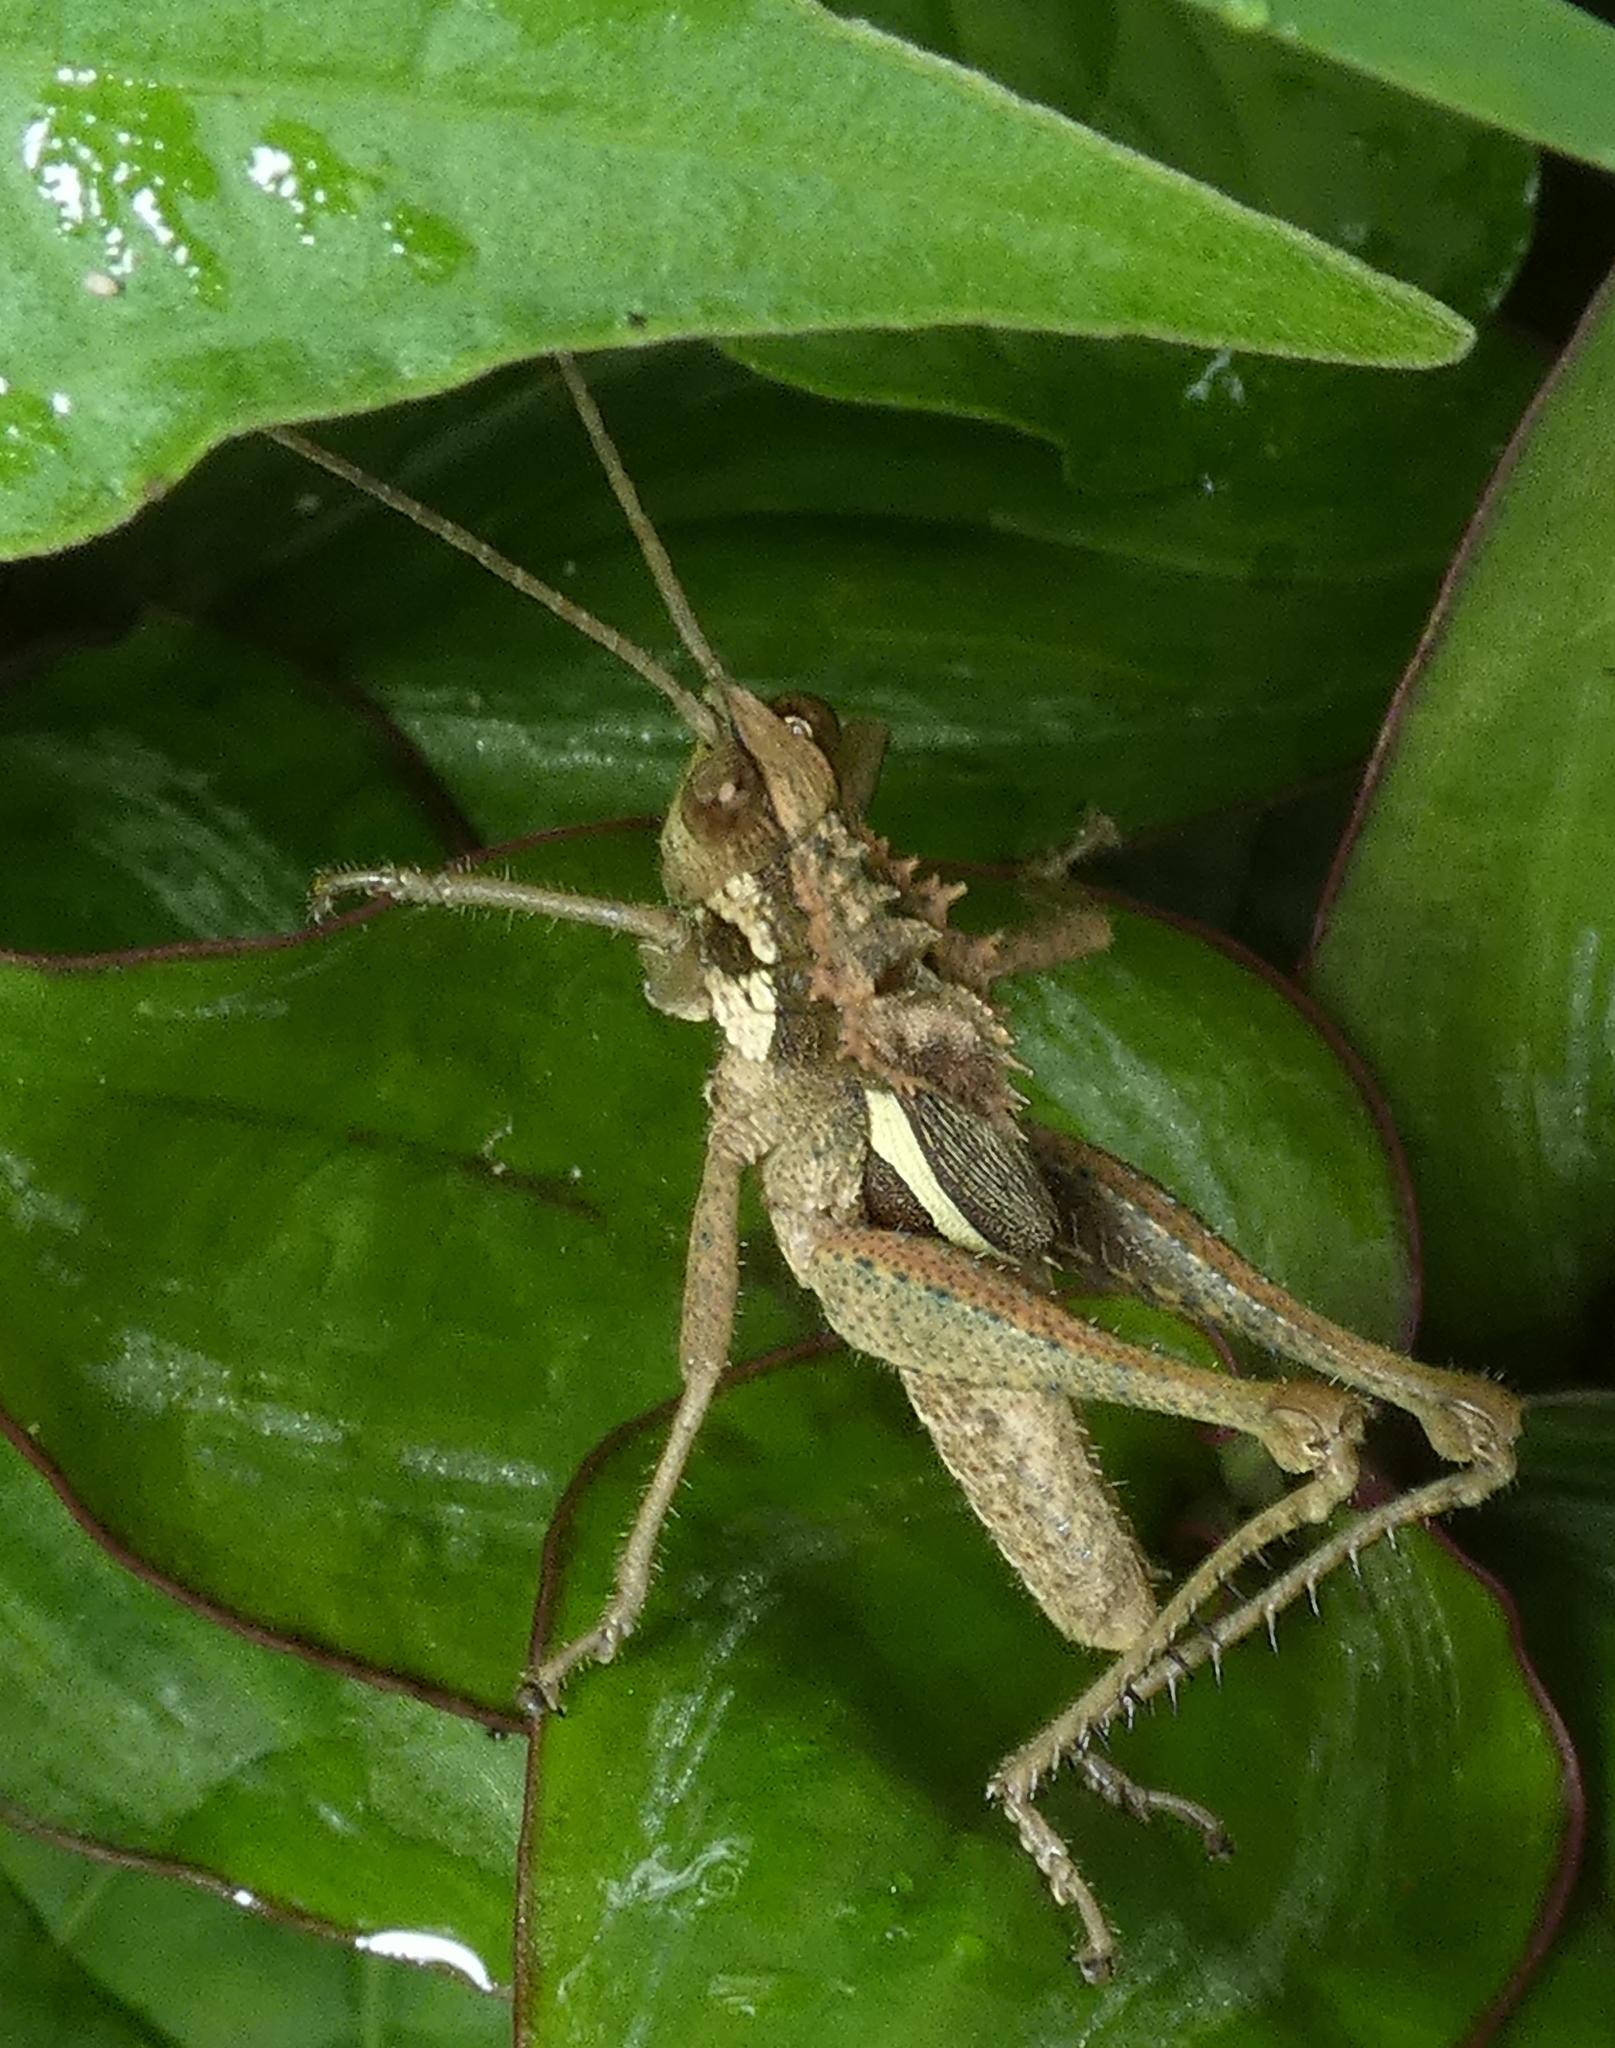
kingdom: Animalia
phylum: Arthropoda
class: Insecta
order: Orthoptera
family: Romaleidae
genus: Helionotus
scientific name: Helionotus mirabilis
